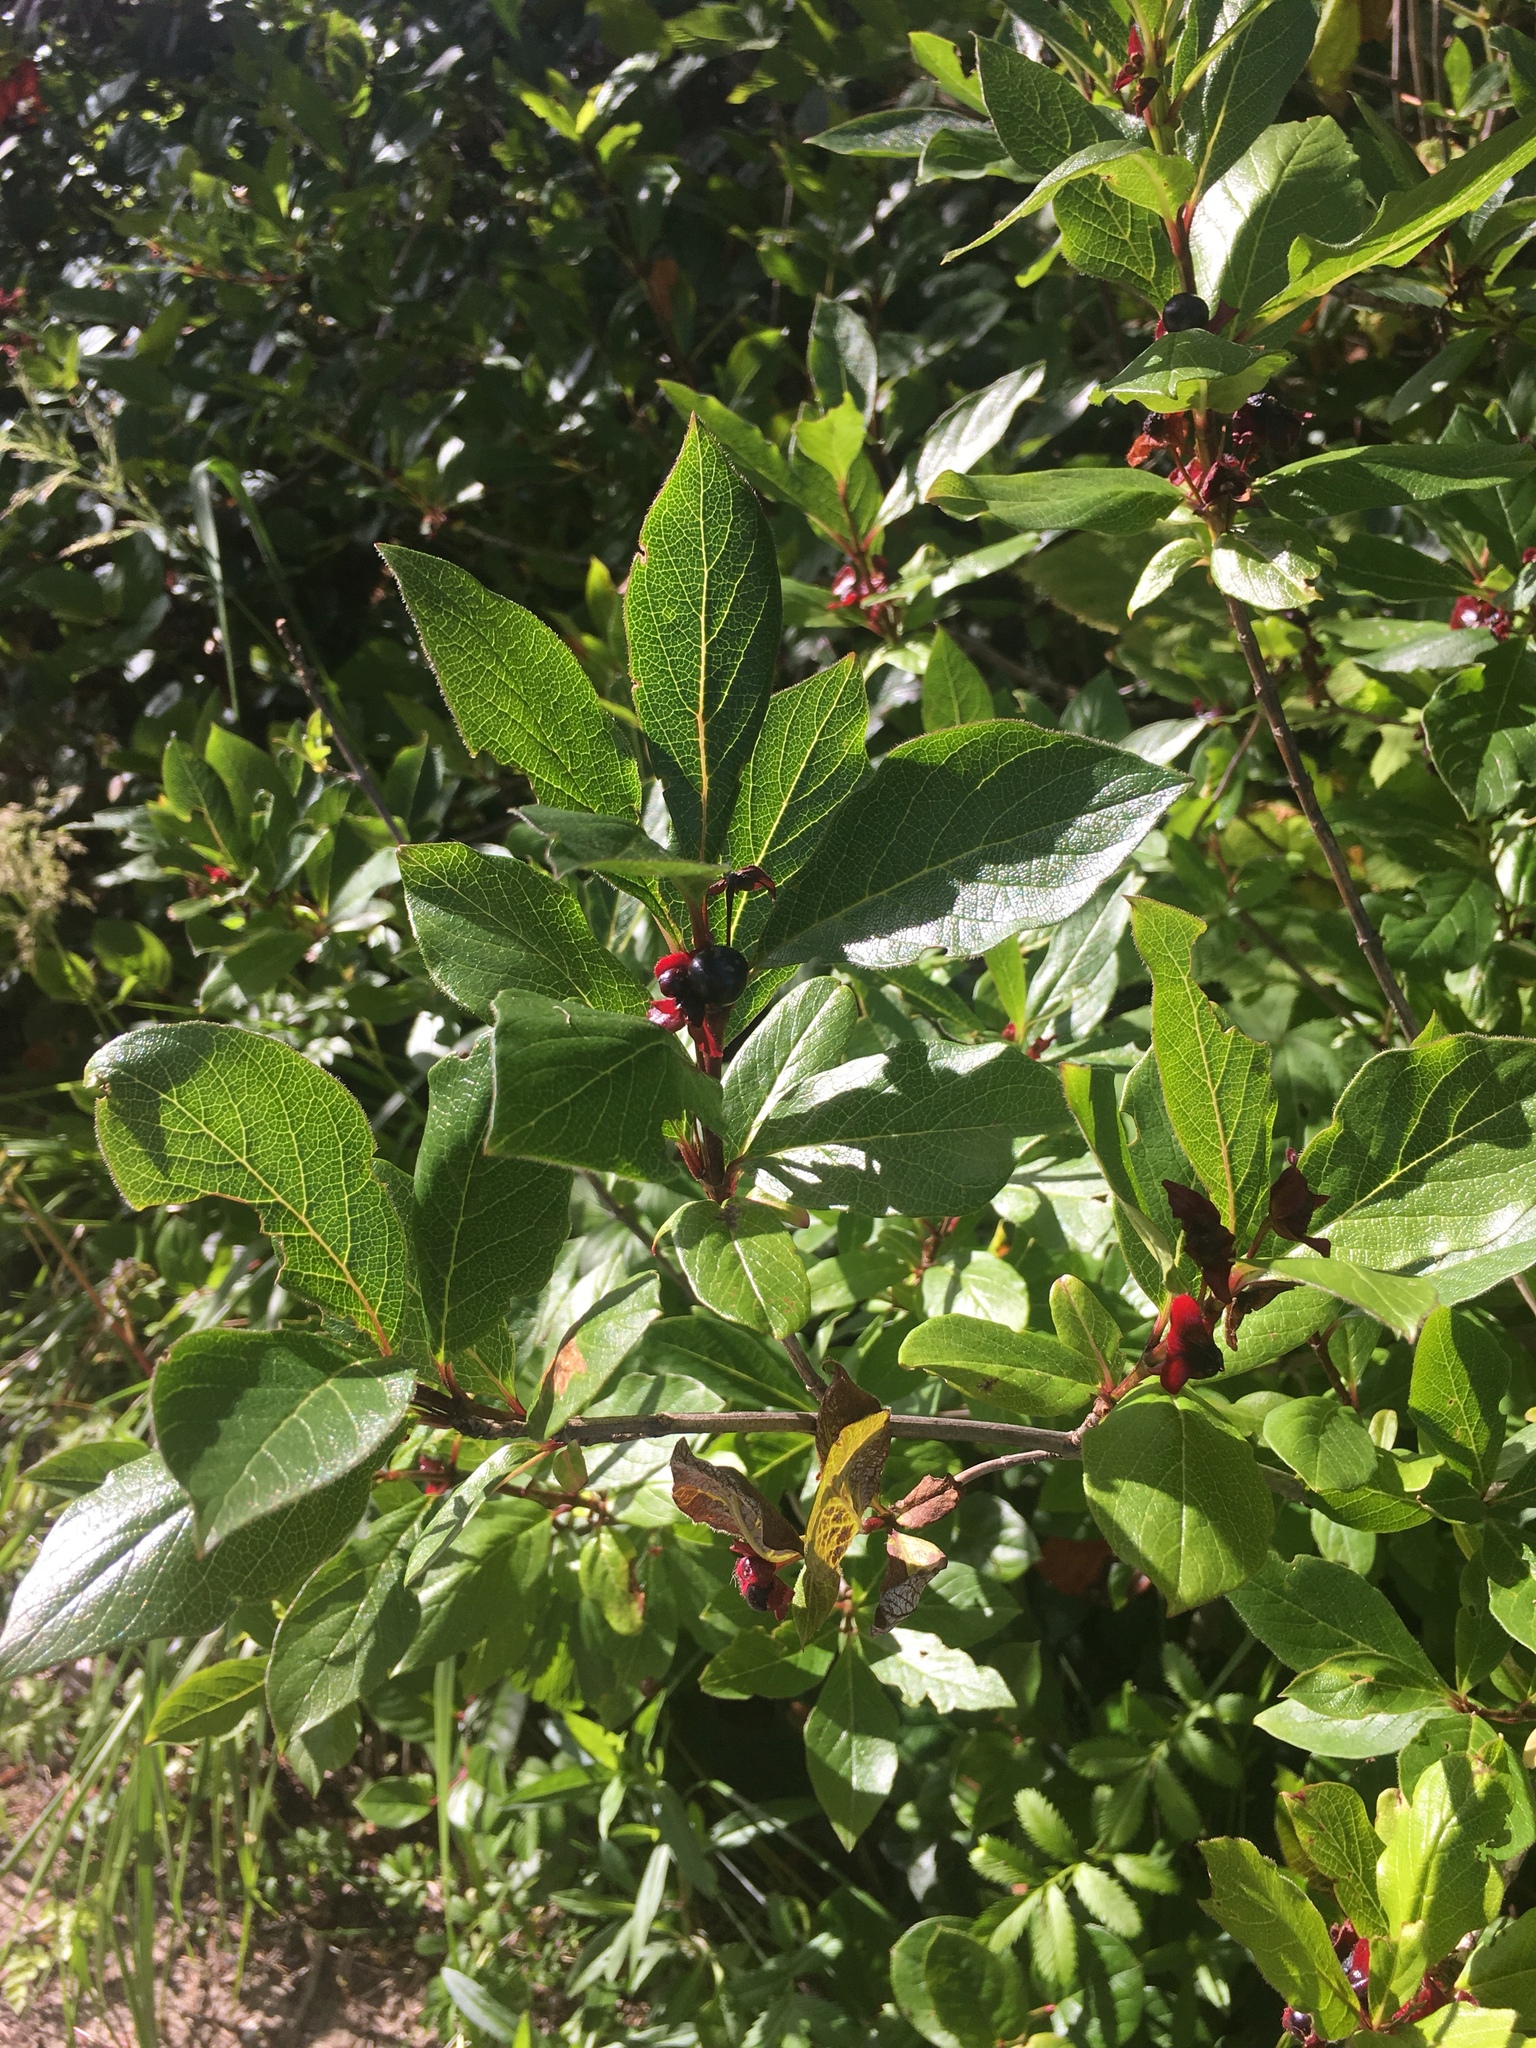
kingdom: Plantae
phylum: Tracheophyta
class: Magnoliopsida
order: Dipsacales
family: Caprifoliaceae
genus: Lonicera
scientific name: Lonicera involucrata
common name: Californian honeysuckle
